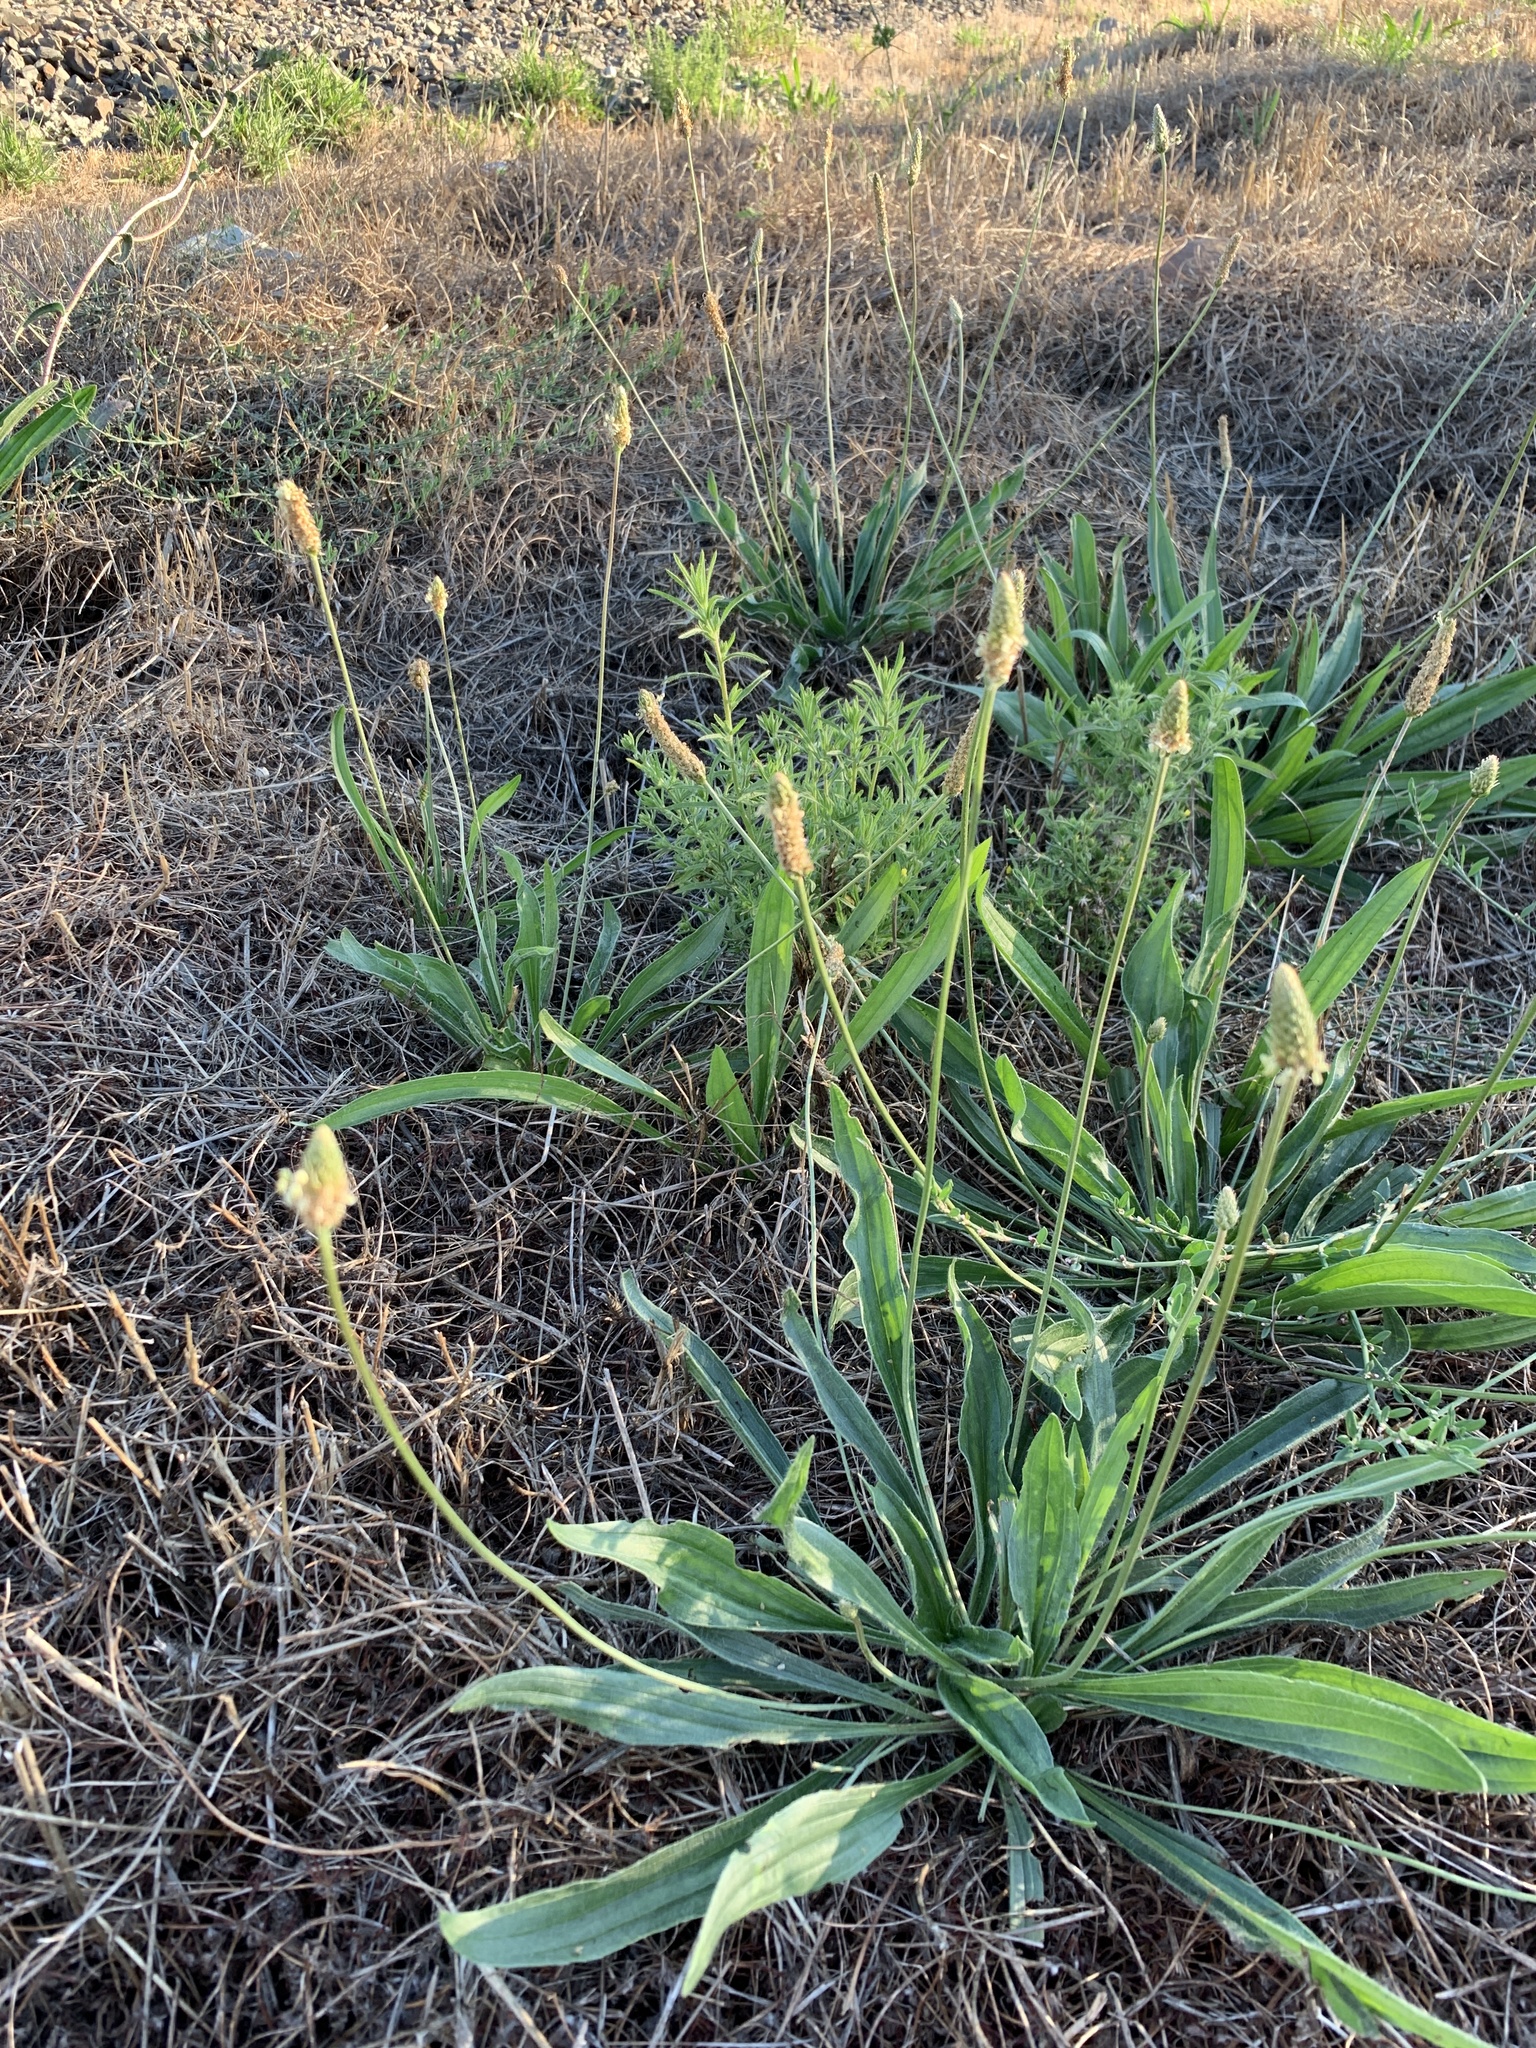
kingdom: Plantae
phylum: Tracheophyta
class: Magnoliopsida
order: Lamiales
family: Plantaginaceae
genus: Plantago
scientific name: Plantago lanceolata
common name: Ribwort plantain
